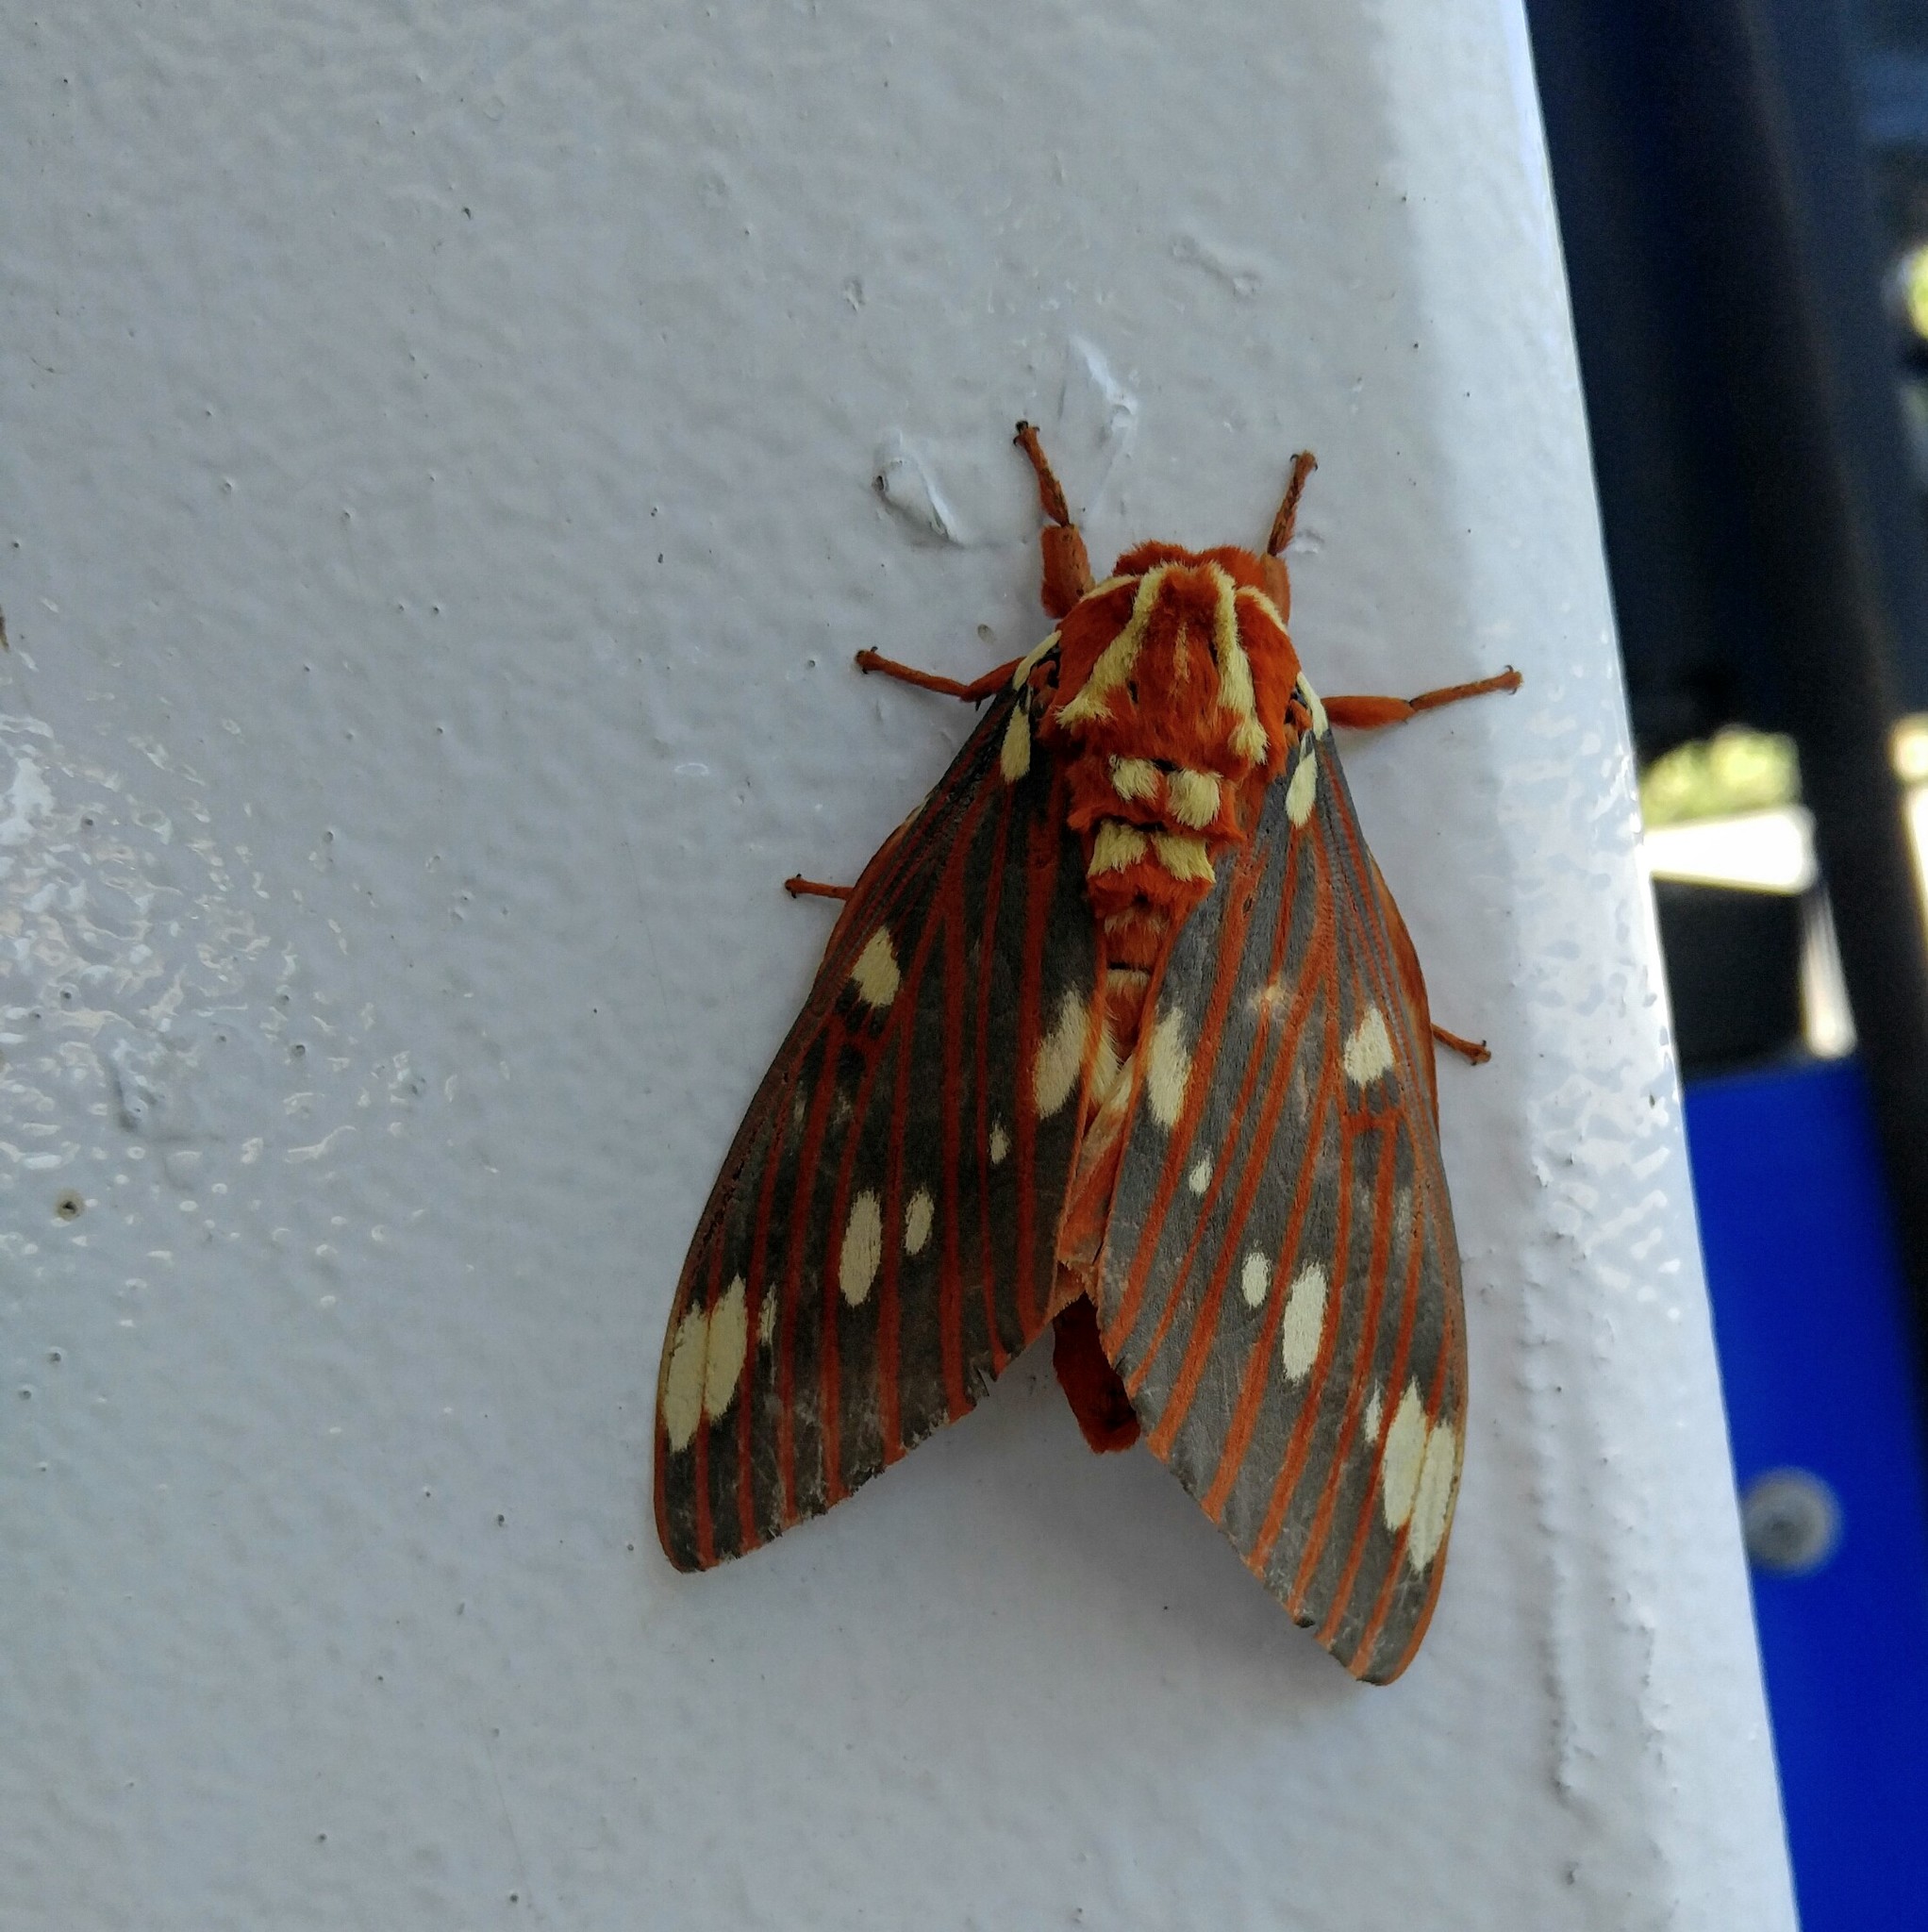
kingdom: Animalia
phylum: Arthropoda
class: Insecta
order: Lepidoptera
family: Saturniidae
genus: Citheronia
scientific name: Citheronia regalis
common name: Hickory horned devil
